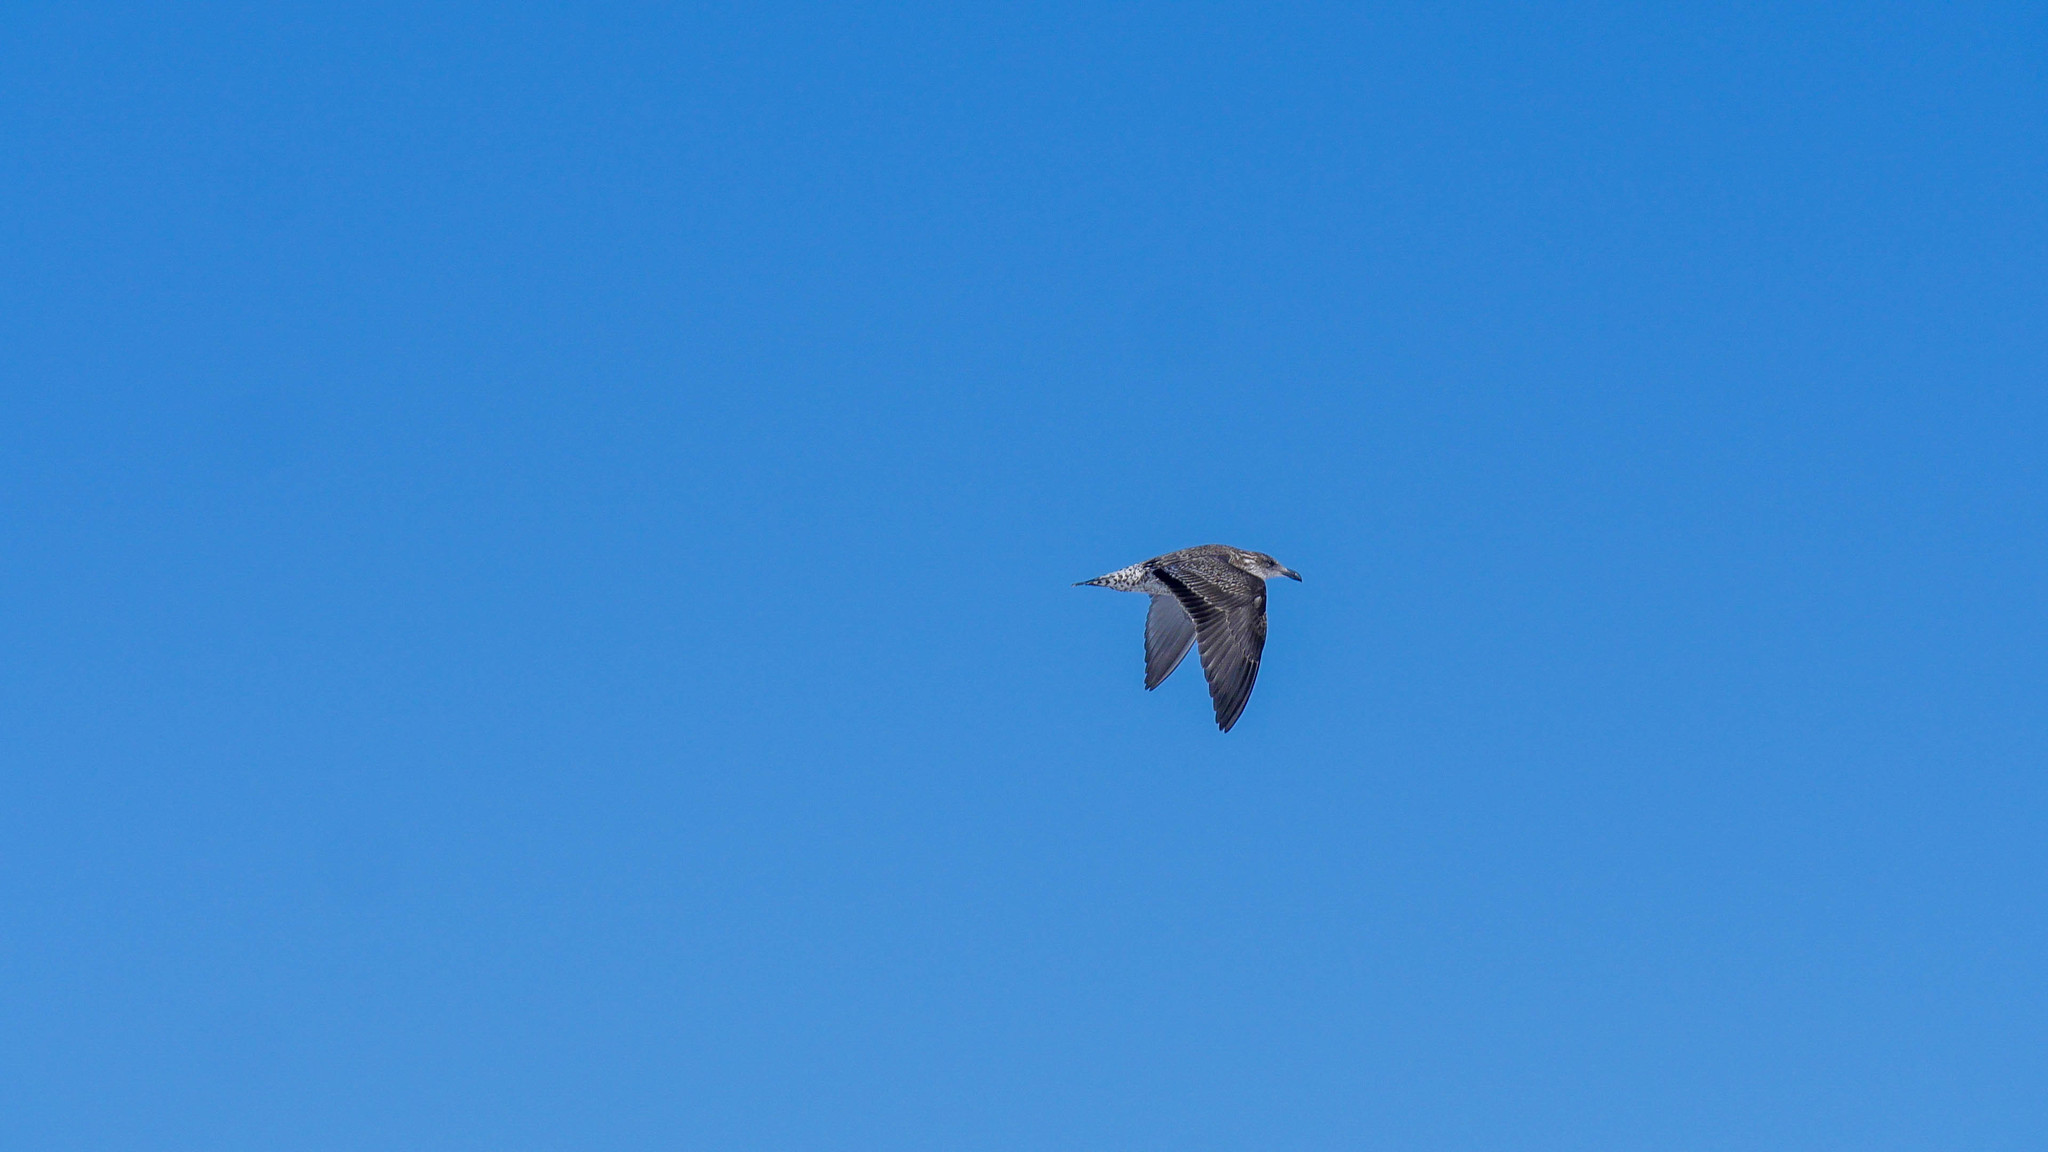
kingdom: Animalia
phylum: Chordata
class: Aves
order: Charadriiformes
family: Laridae
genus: Larus
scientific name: Larus dominicanus
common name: Kelp gull
